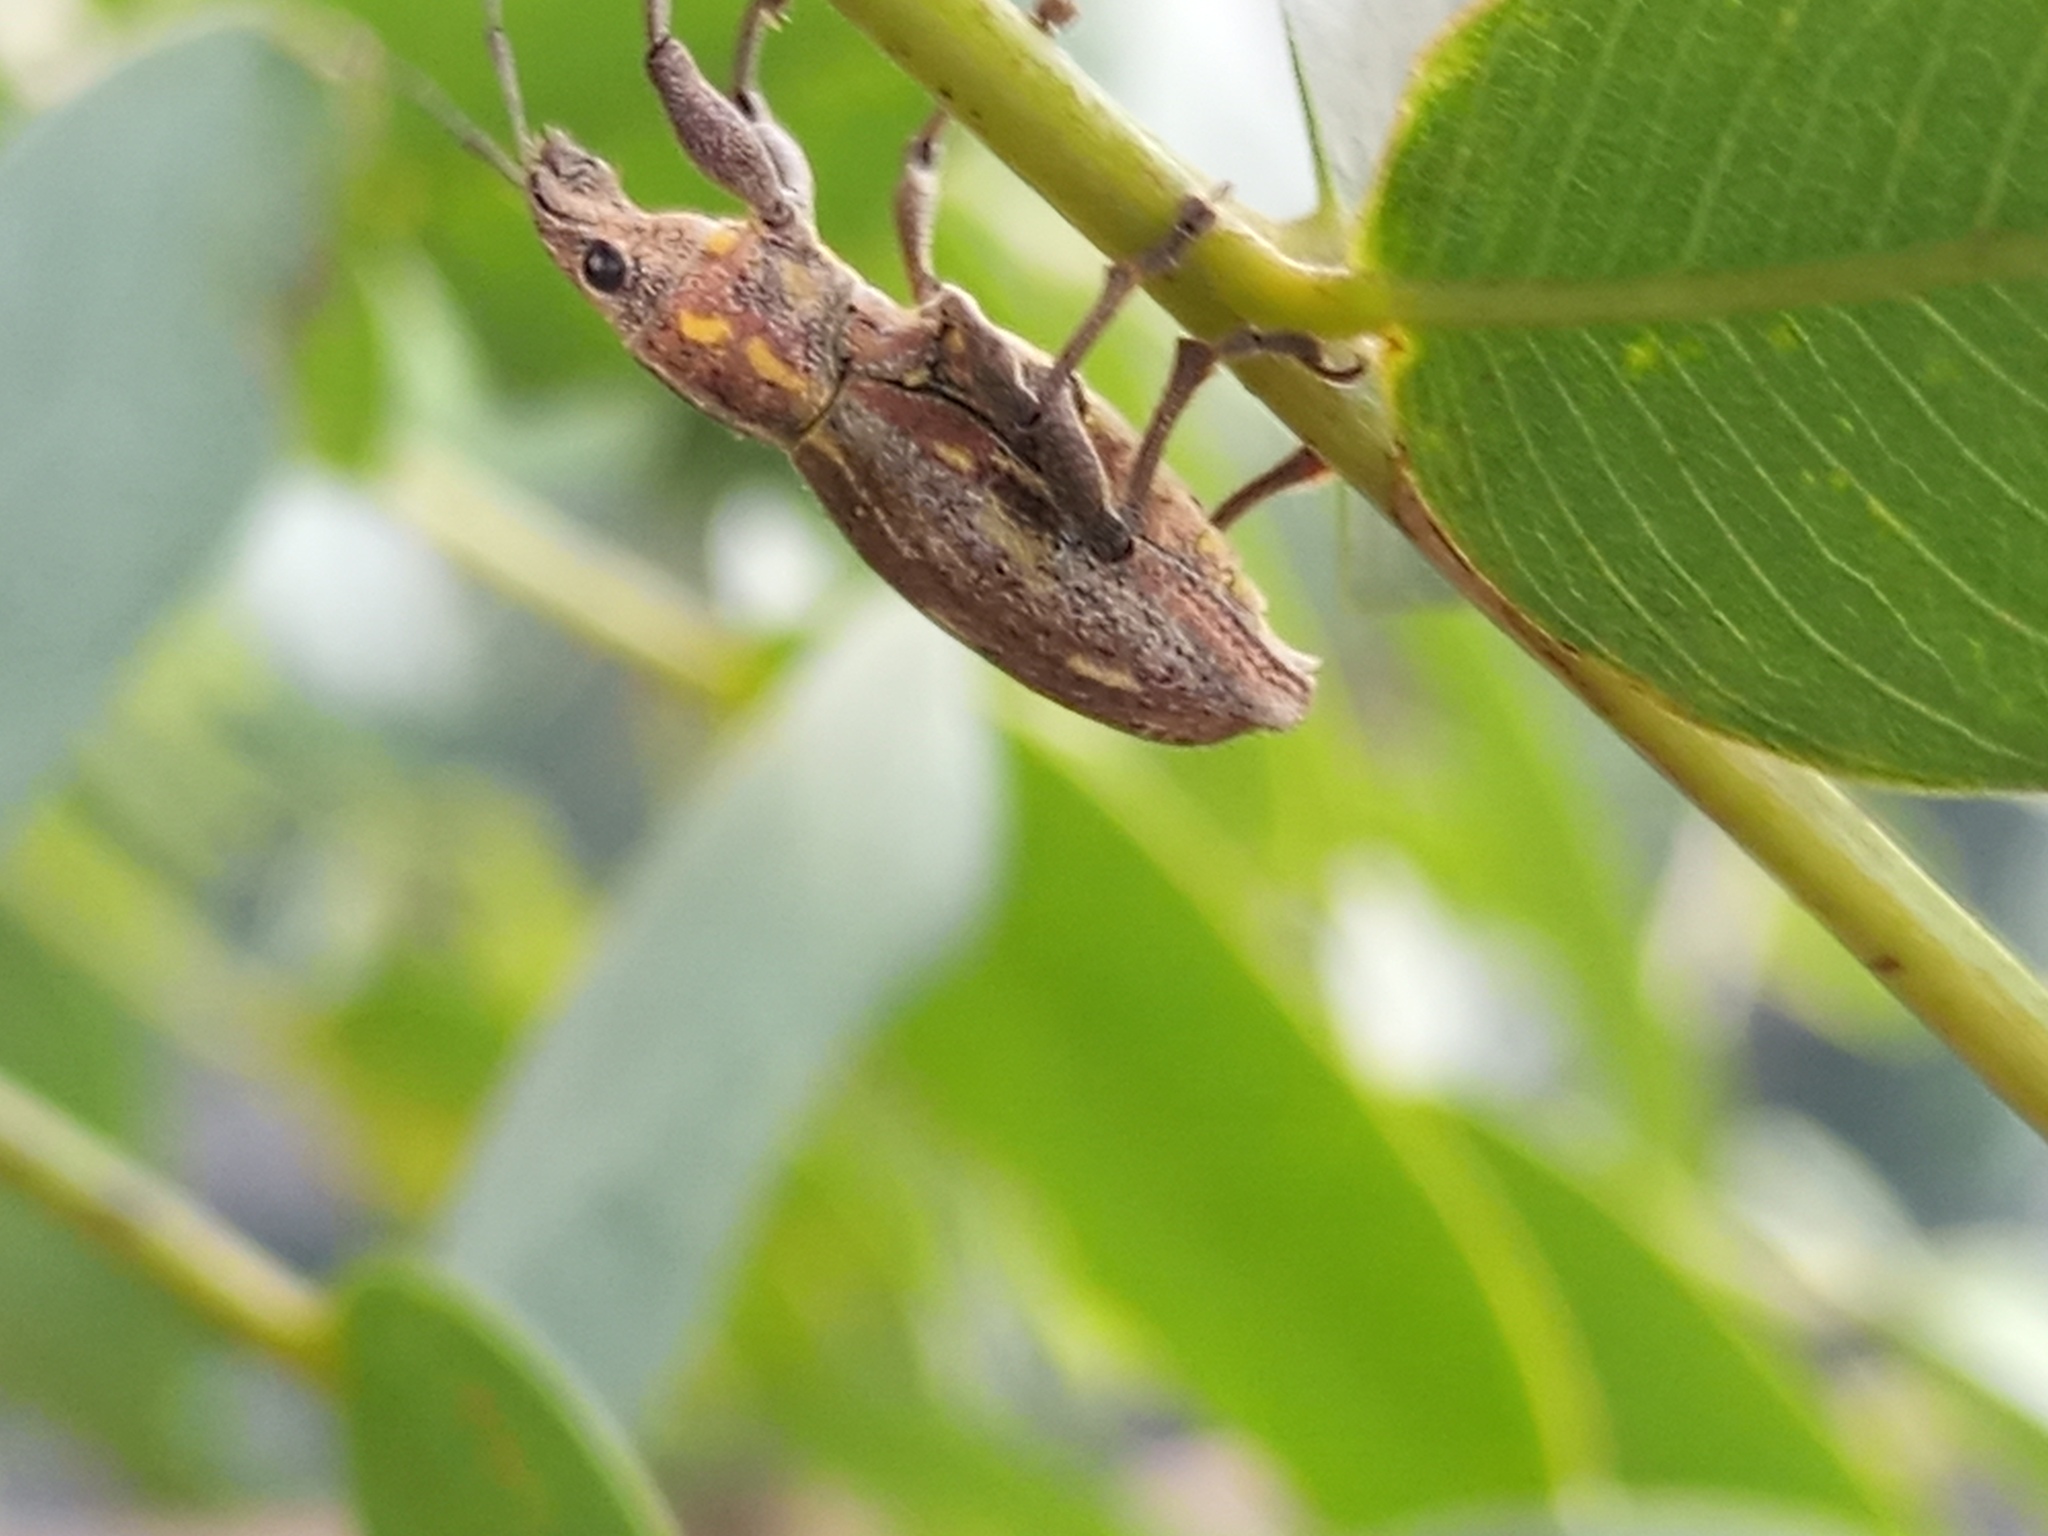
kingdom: Animalia
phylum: Arthropoda
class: Insecta
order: Coleoptera
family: Curculionidae
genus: Naupactus
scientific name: Naupactus xanthographus
